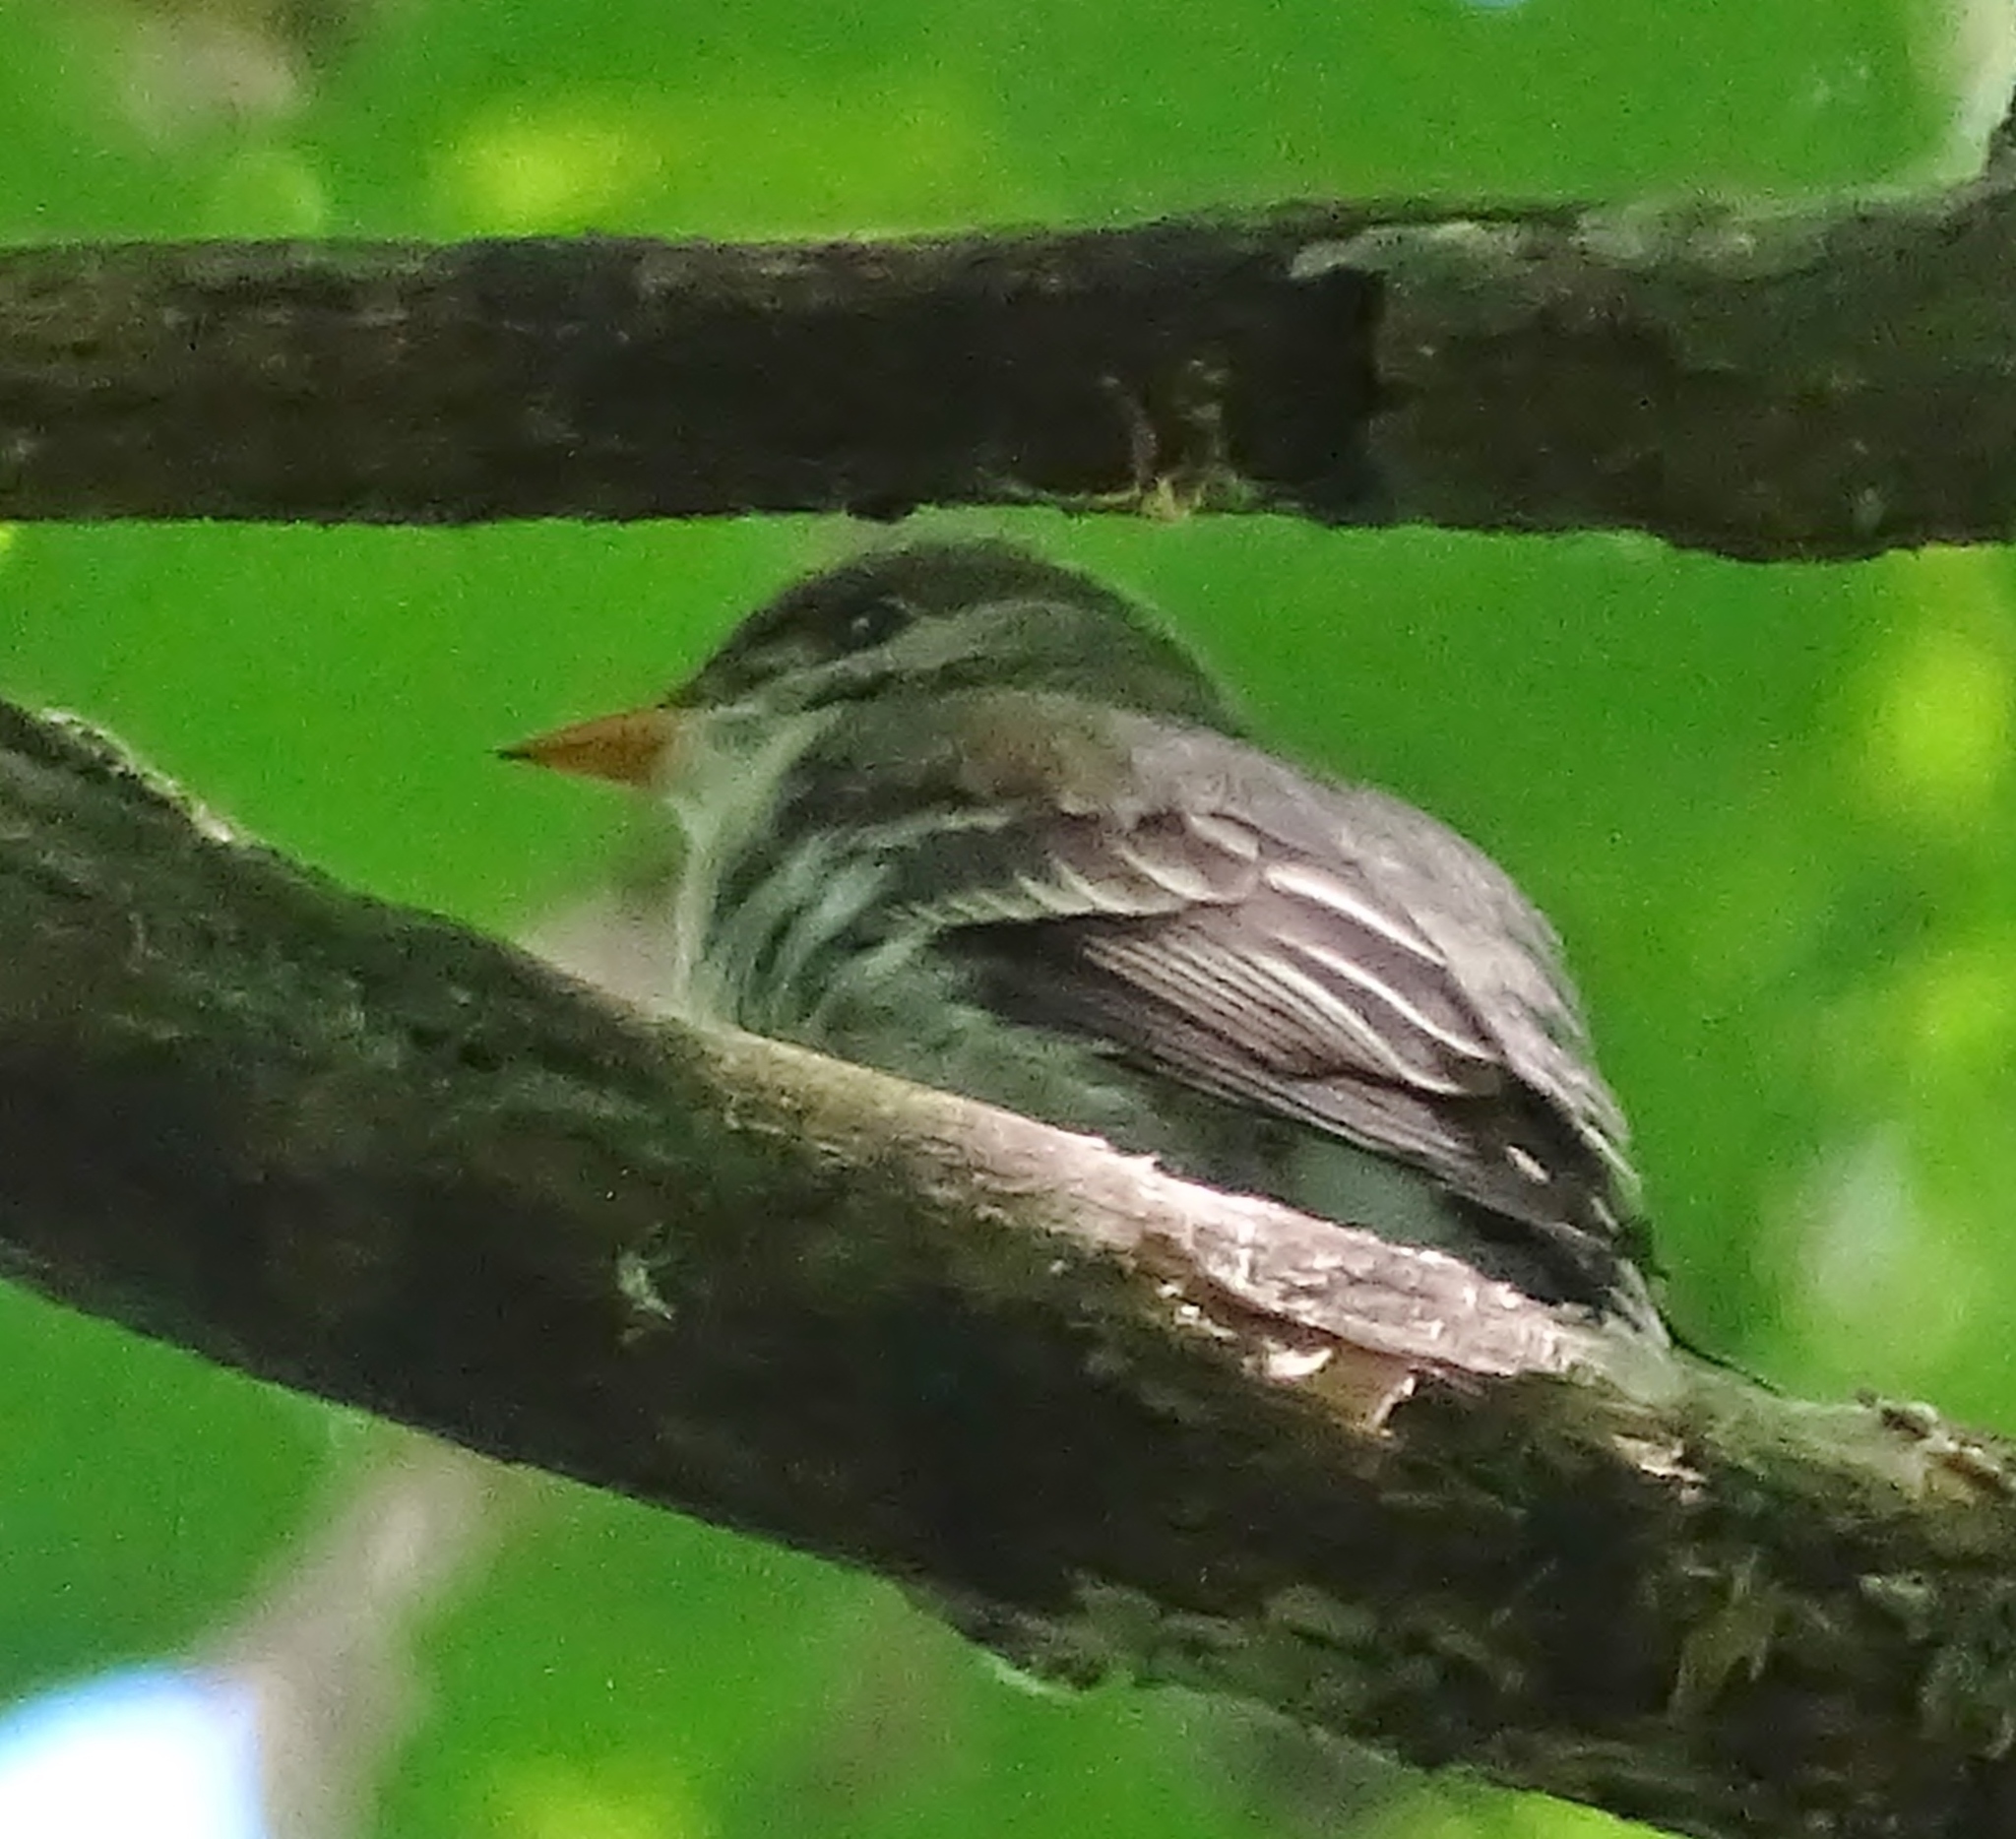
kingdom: Animalia
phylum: Chordata
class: Aves
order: Passeriformes
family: Tyrannidae
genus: Contopus
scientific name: Contopus virens
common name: Eastern wood-pewee
